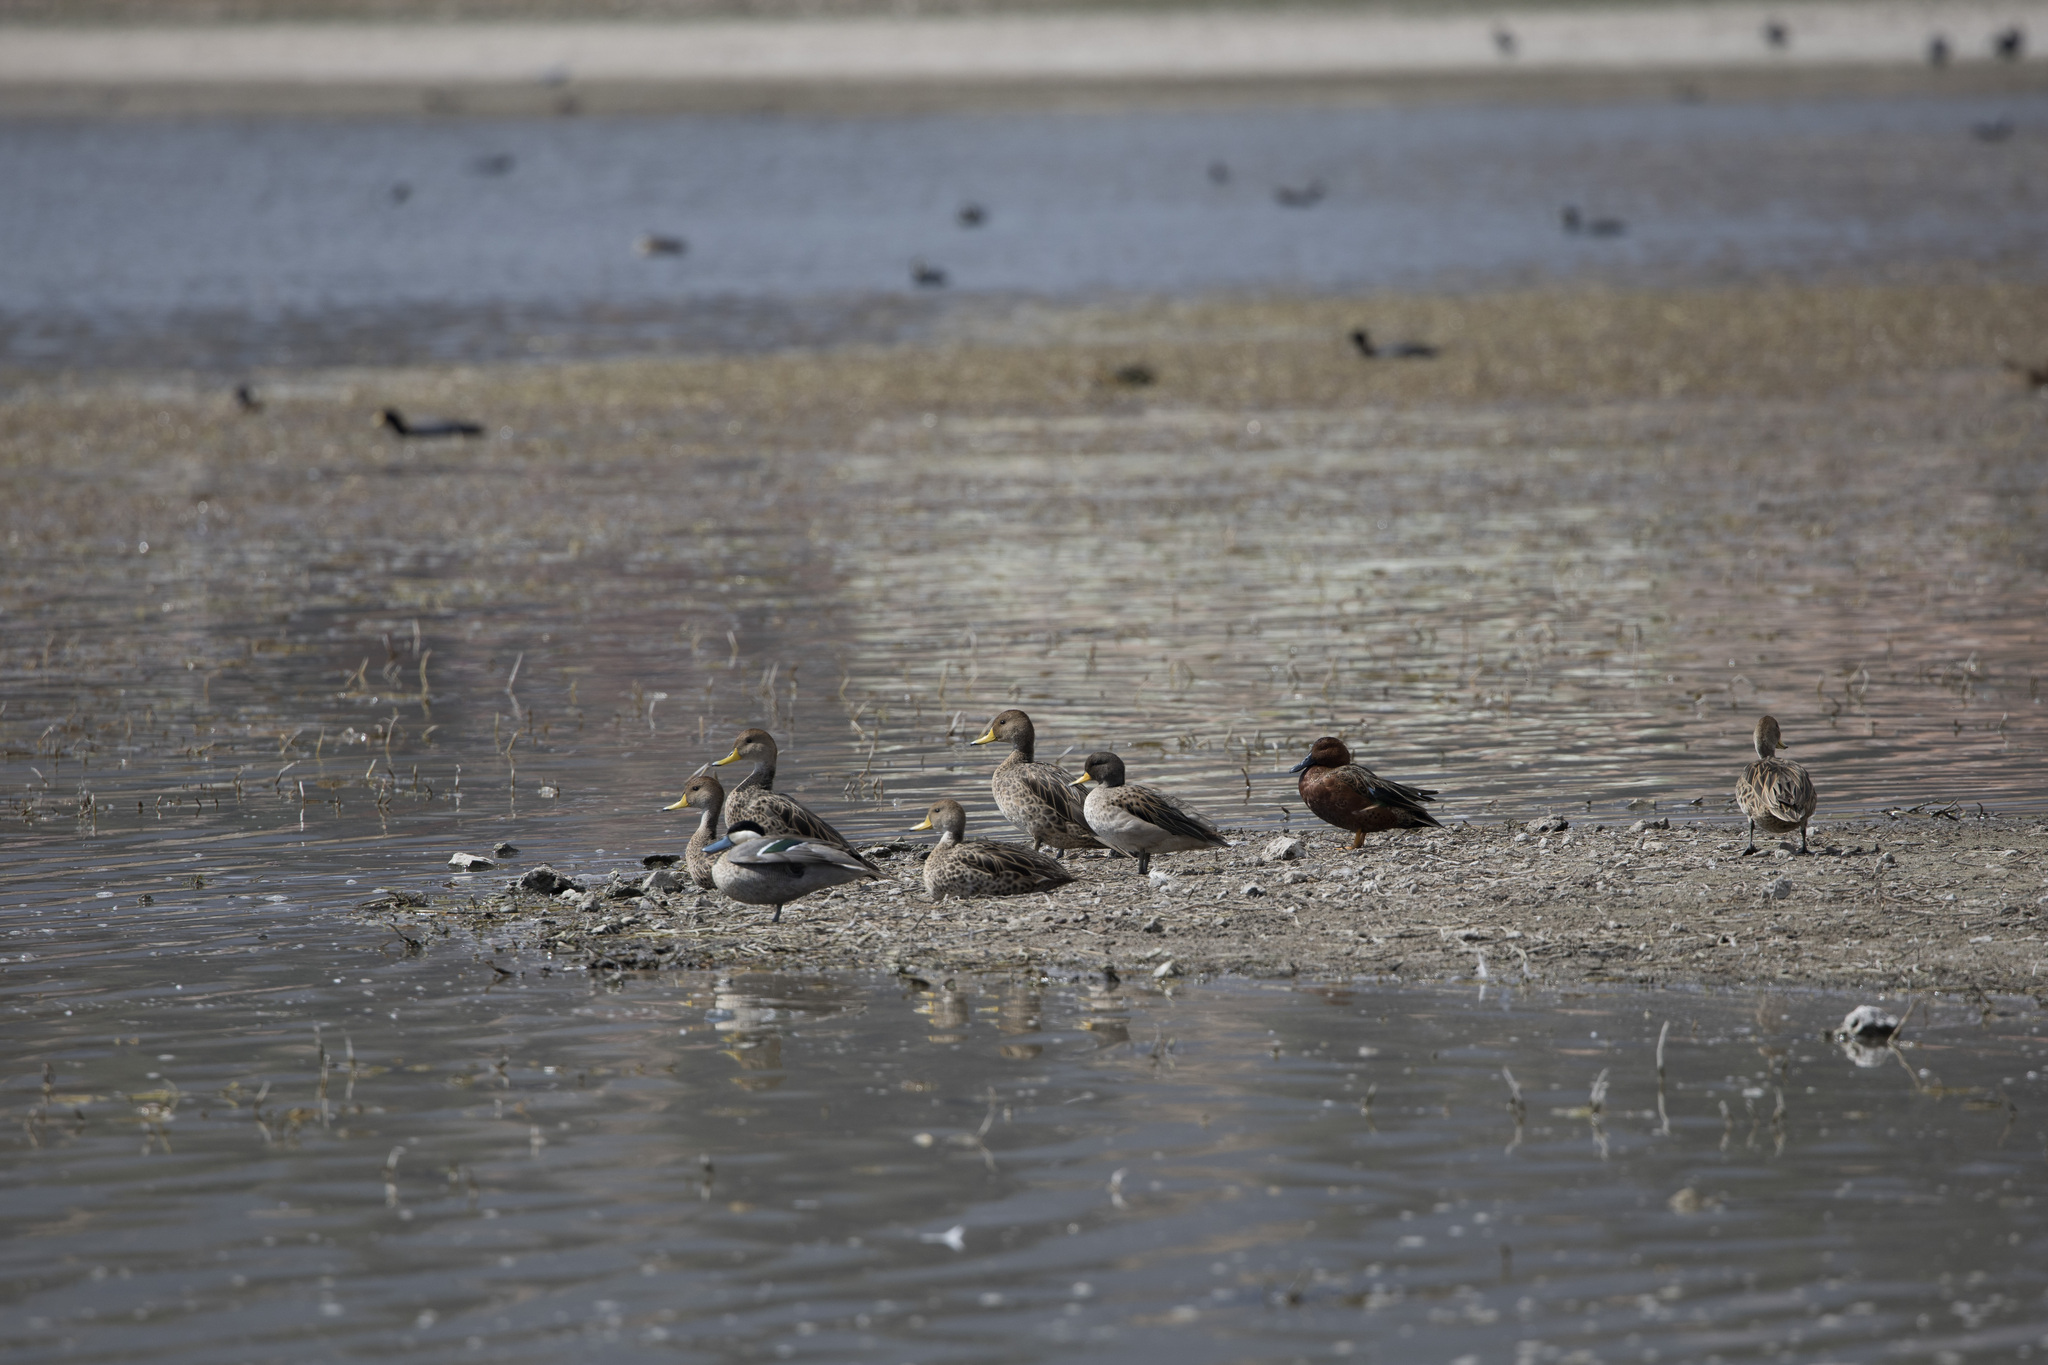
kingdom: Animalia
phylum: Chordata
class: Aves
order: Anseriformes
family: Anatidae
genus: Anas
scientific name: Anas flavirostris
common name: Yellow-billed teal
